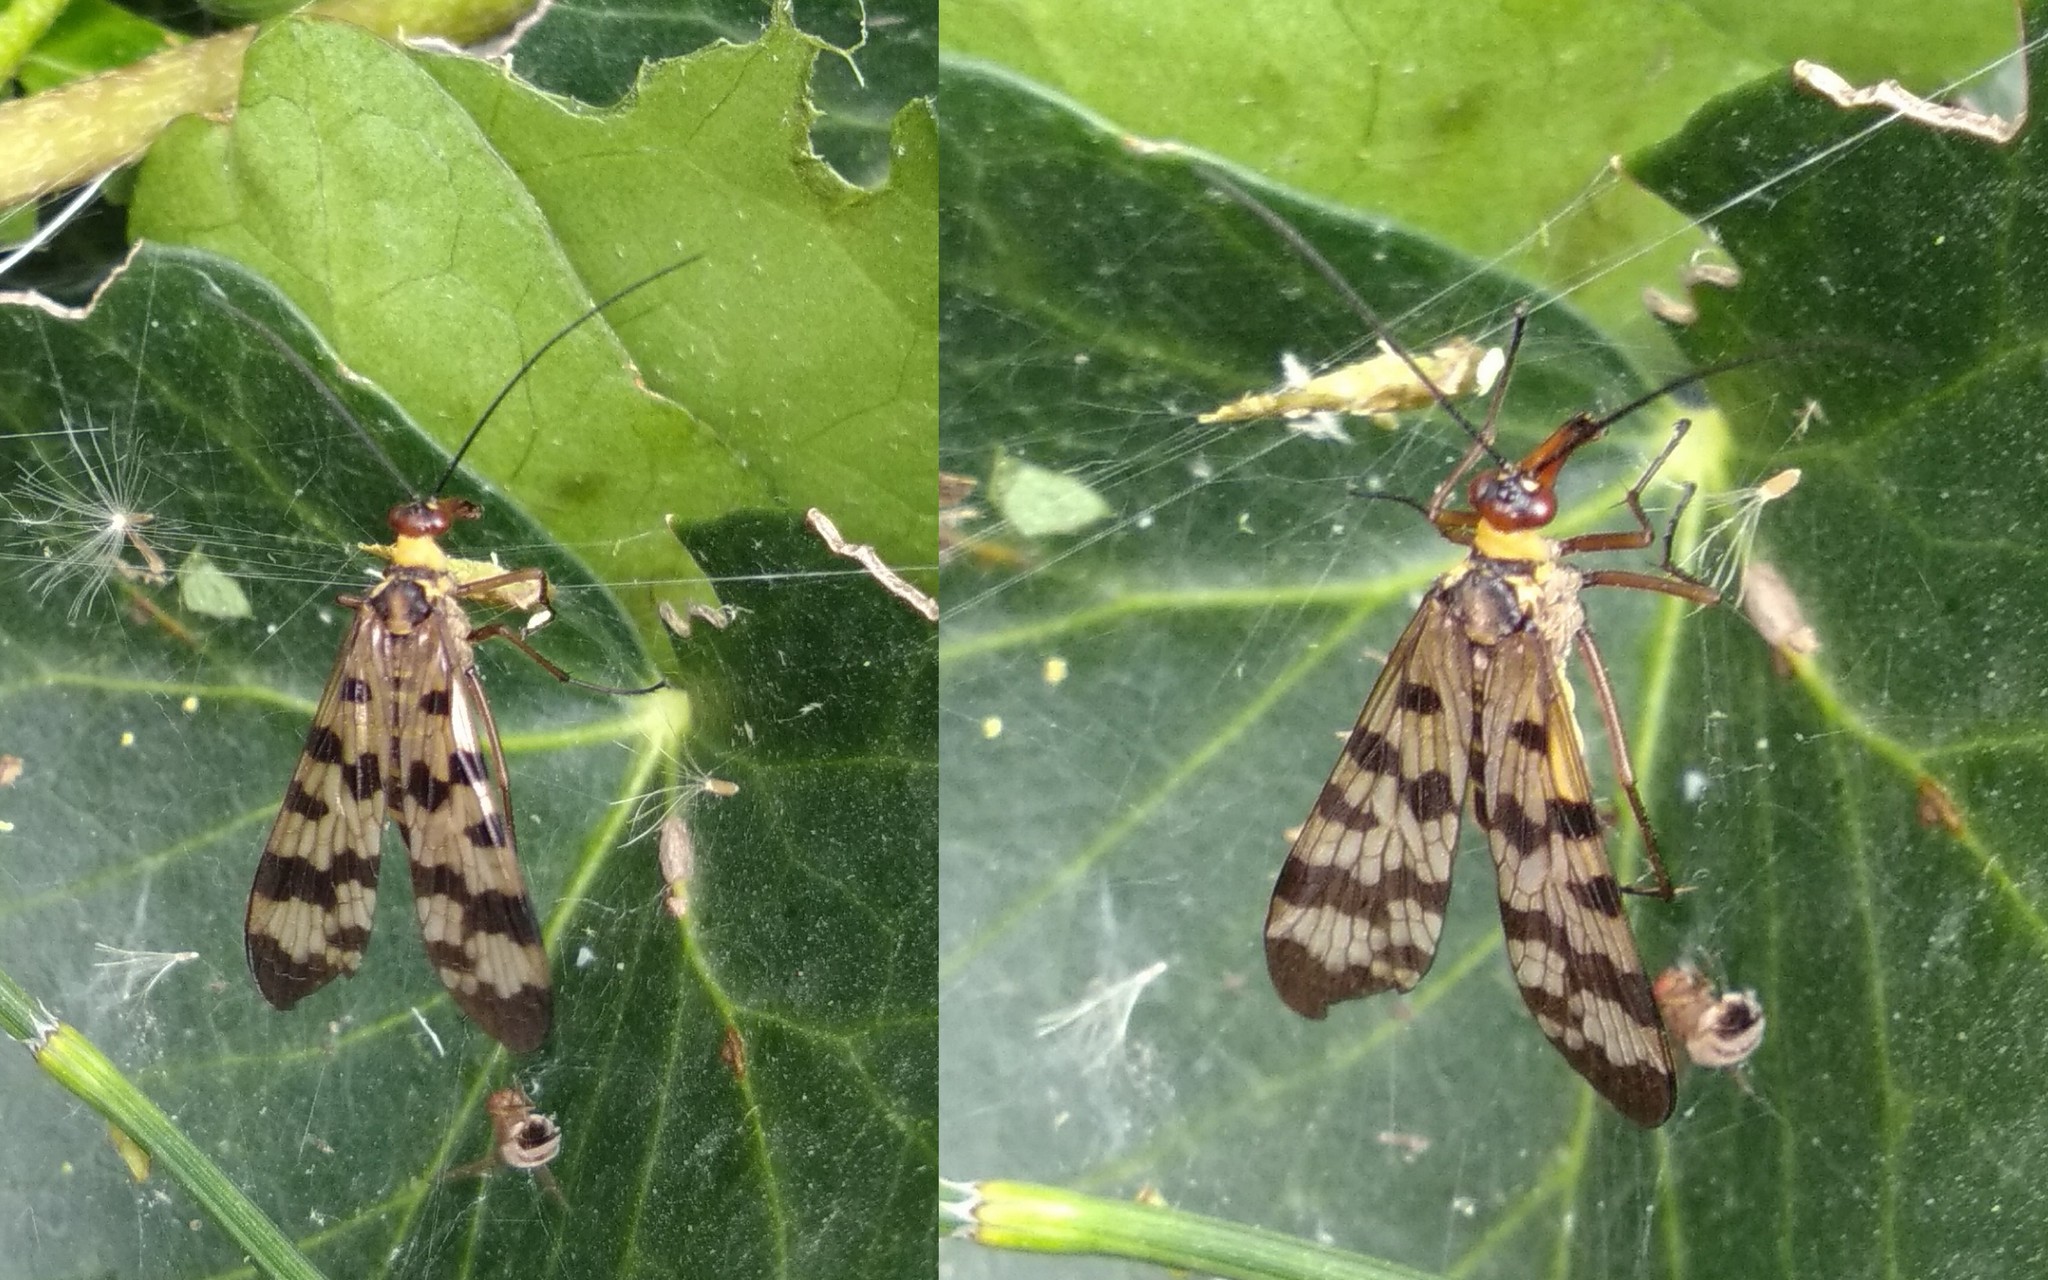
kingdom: Animalia
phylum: Arthropoda
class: Insecta
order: Mecoptera
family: Panorpidae
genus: Panorpa
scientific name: Panorpa meridionalis
